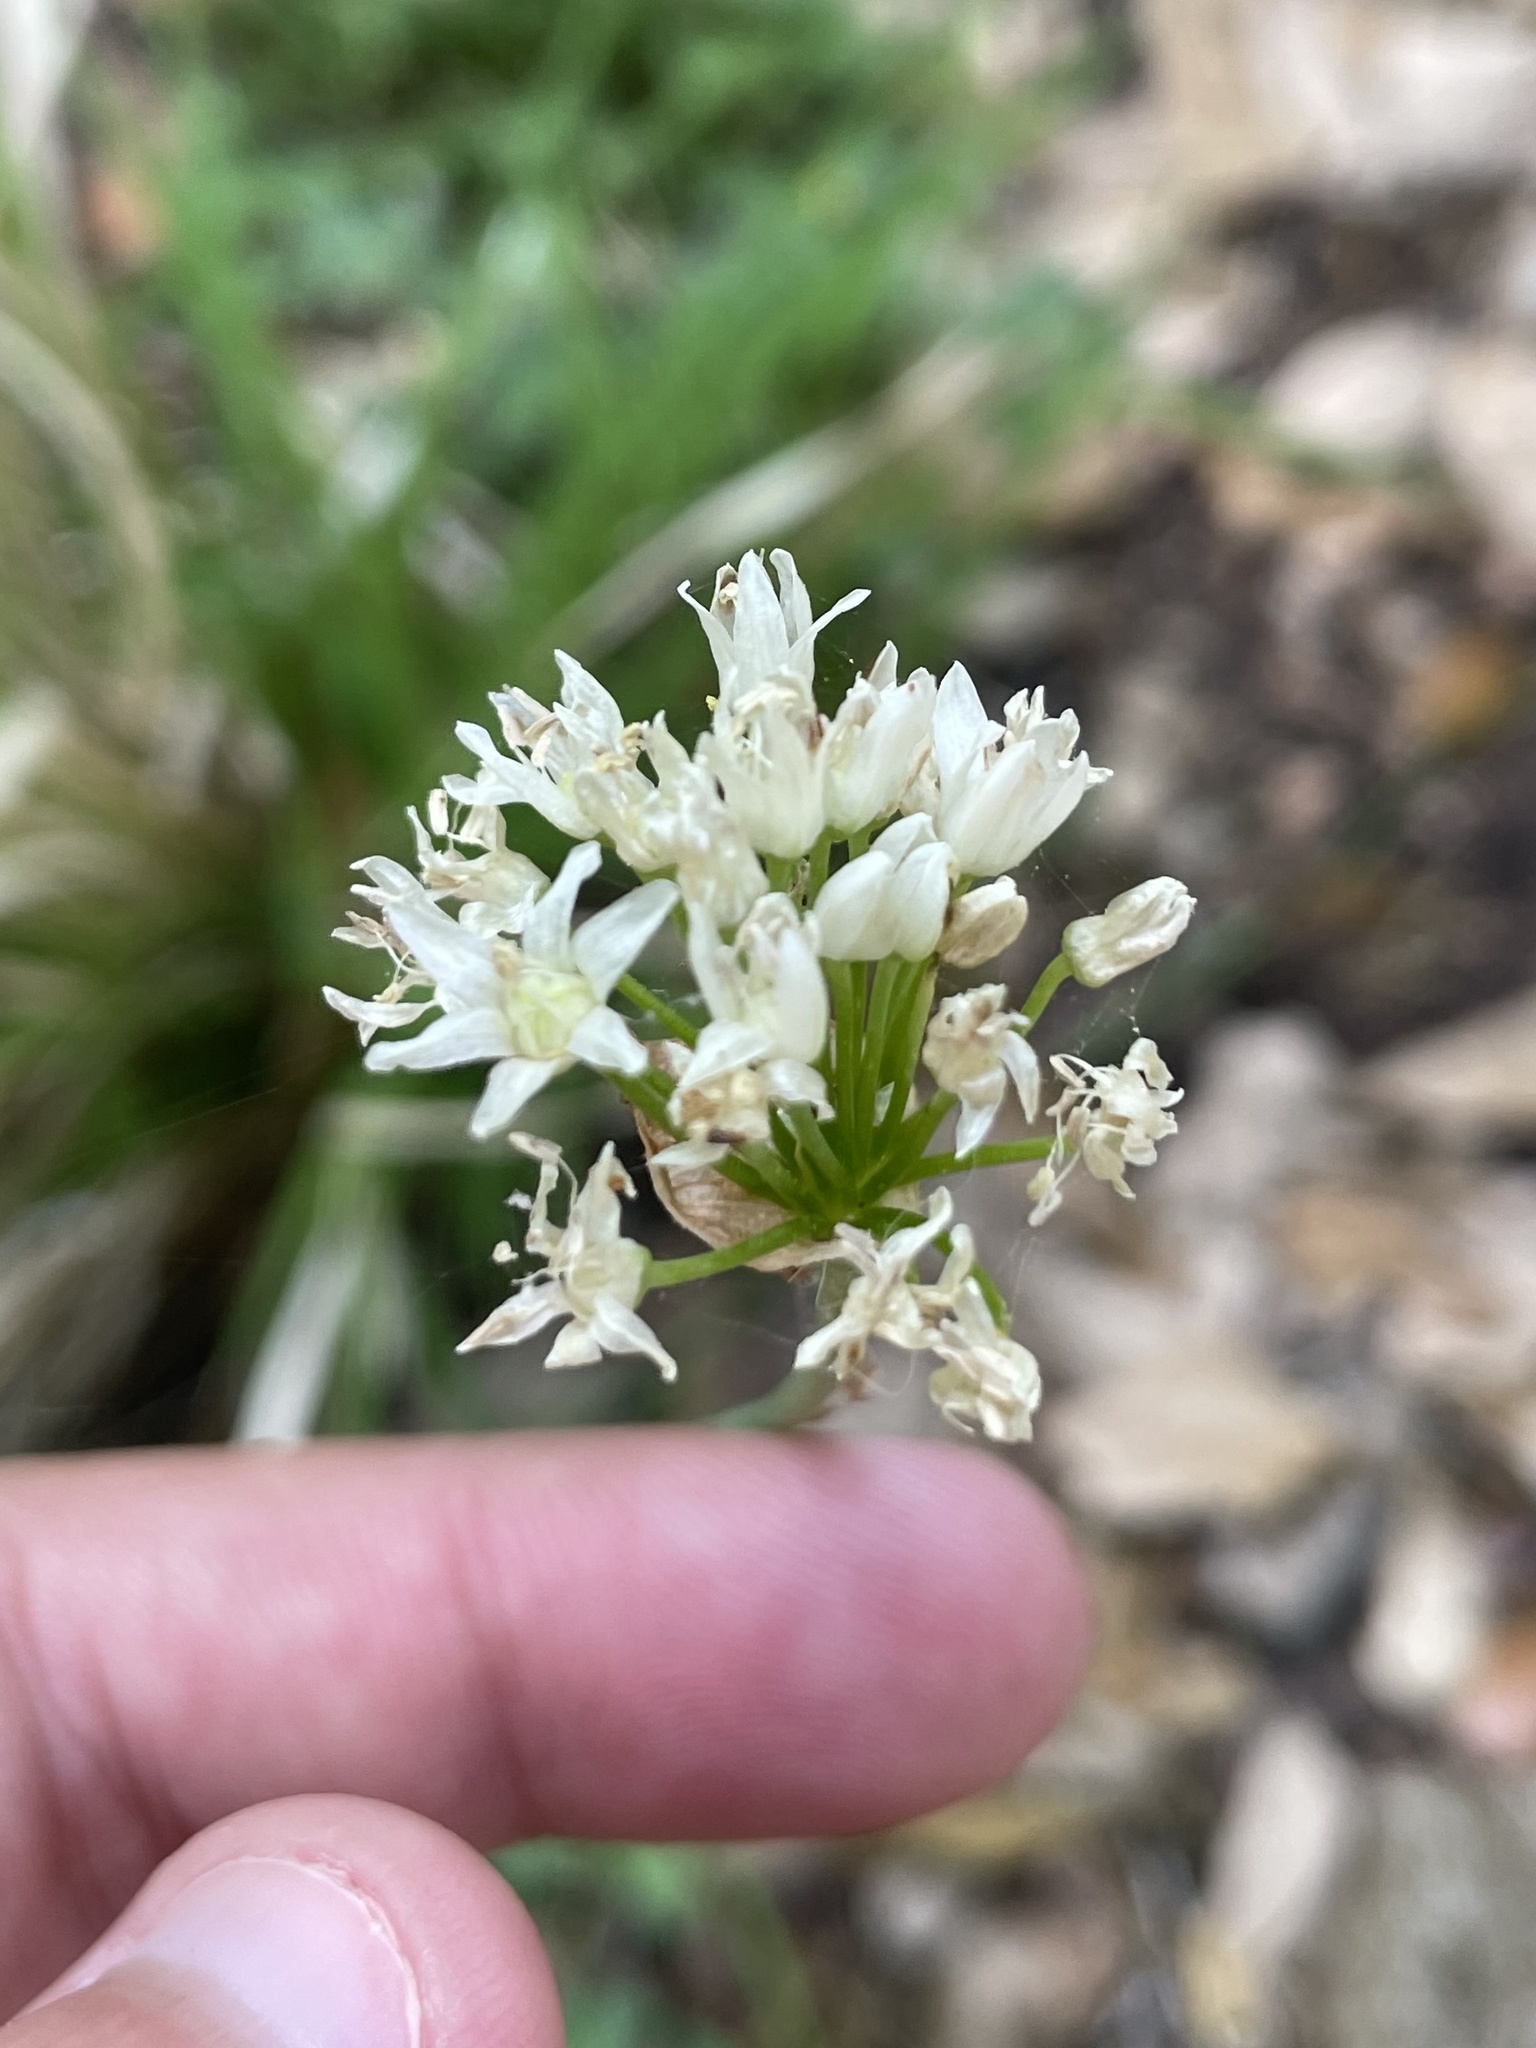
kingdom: Plantae
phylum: Tracheophyta
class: Liliopsida
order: Asparagales
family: Amaryllidaceae
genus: Allium
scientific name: Allium canadense
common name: Meadow garlic
